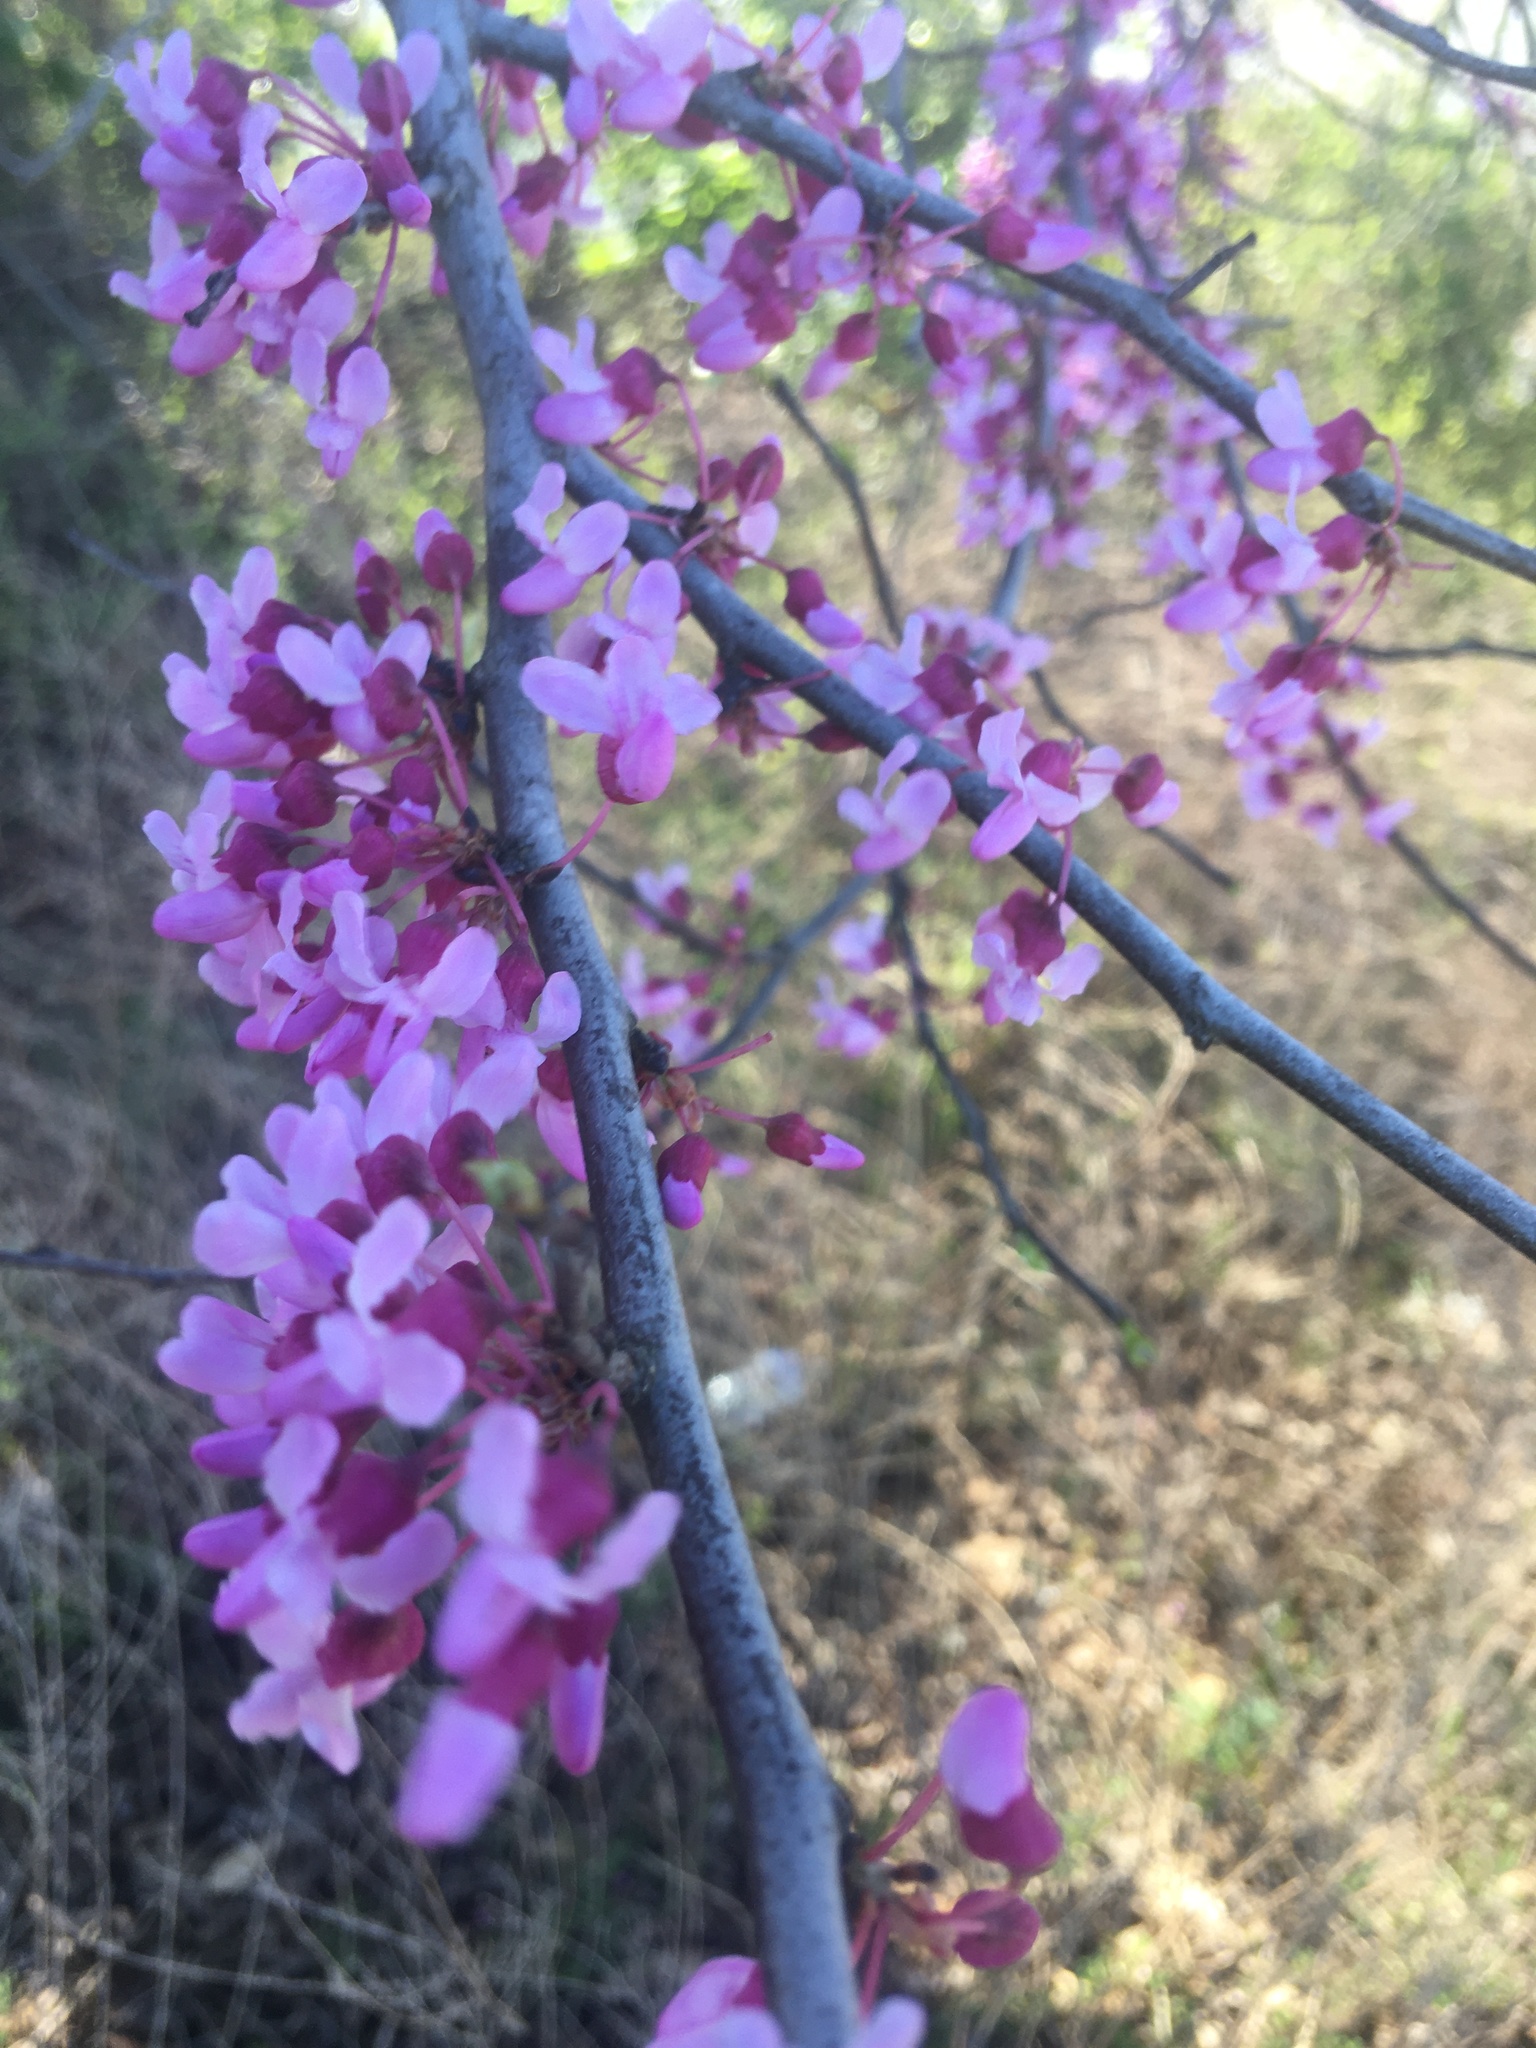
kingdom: Plantae
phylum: Tracheophyta
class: Magnoliopsida
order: Fabales
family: Fabaceae
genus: Cercis
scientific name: Cercis canadensis
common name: Eastern redbud
